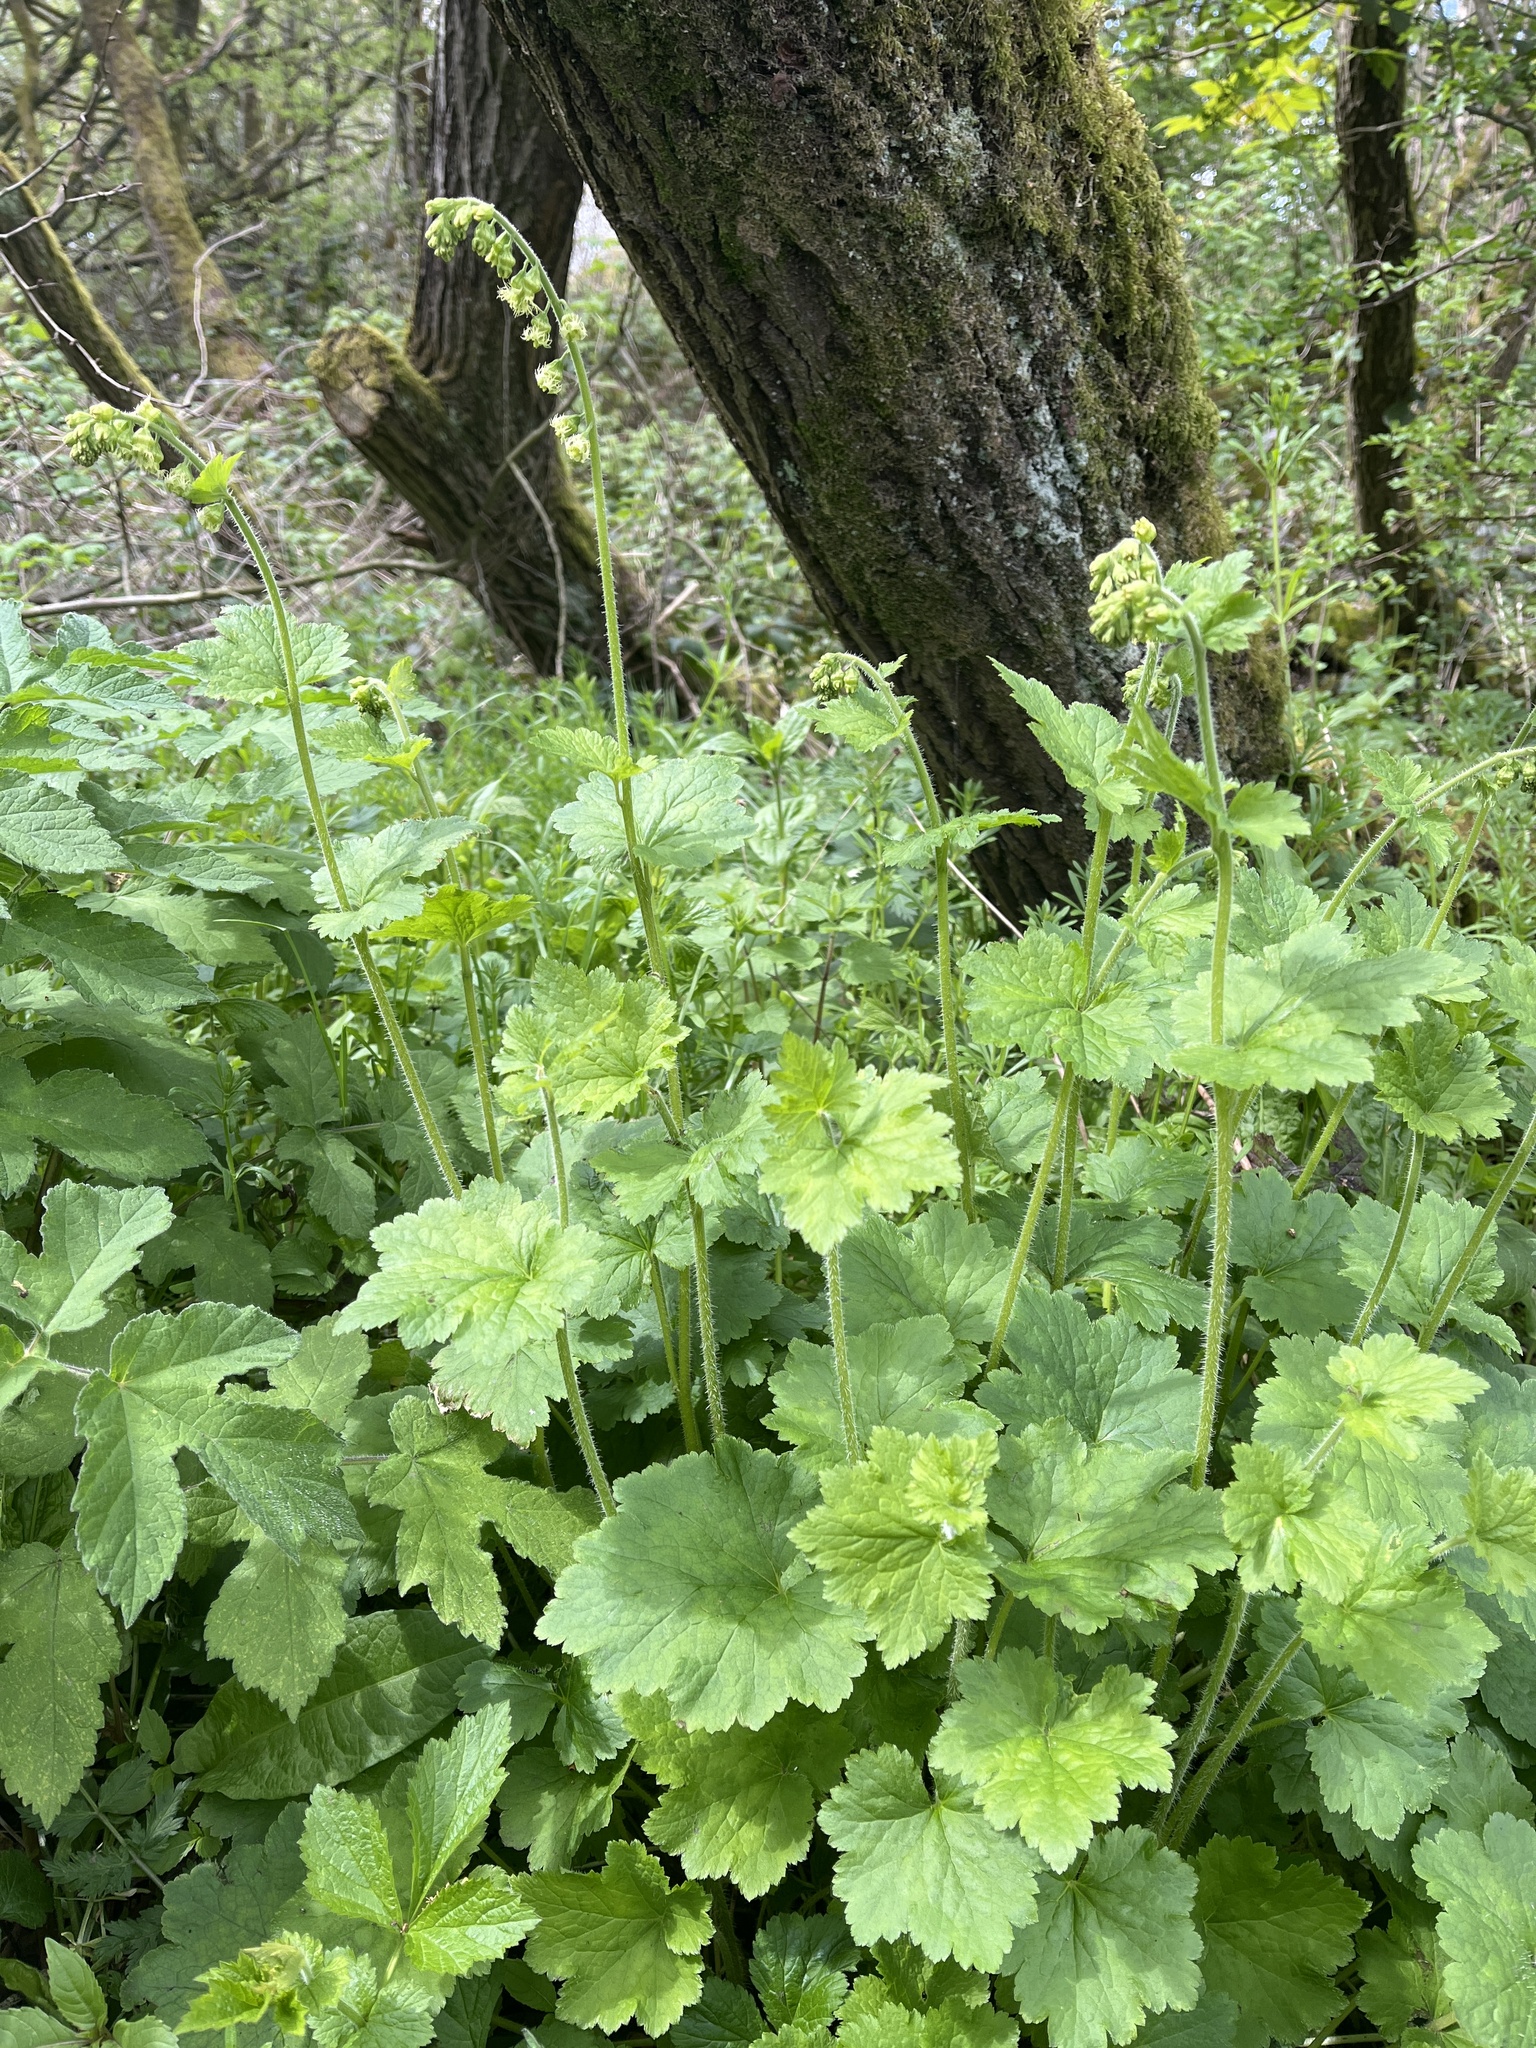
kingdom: Plantae
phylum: Tracheophyta
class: Magnoliopsida
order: Saxifragales
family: Saxifragaceae
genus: Tellima
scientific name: Tellima grandiflora
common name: Fringecups
